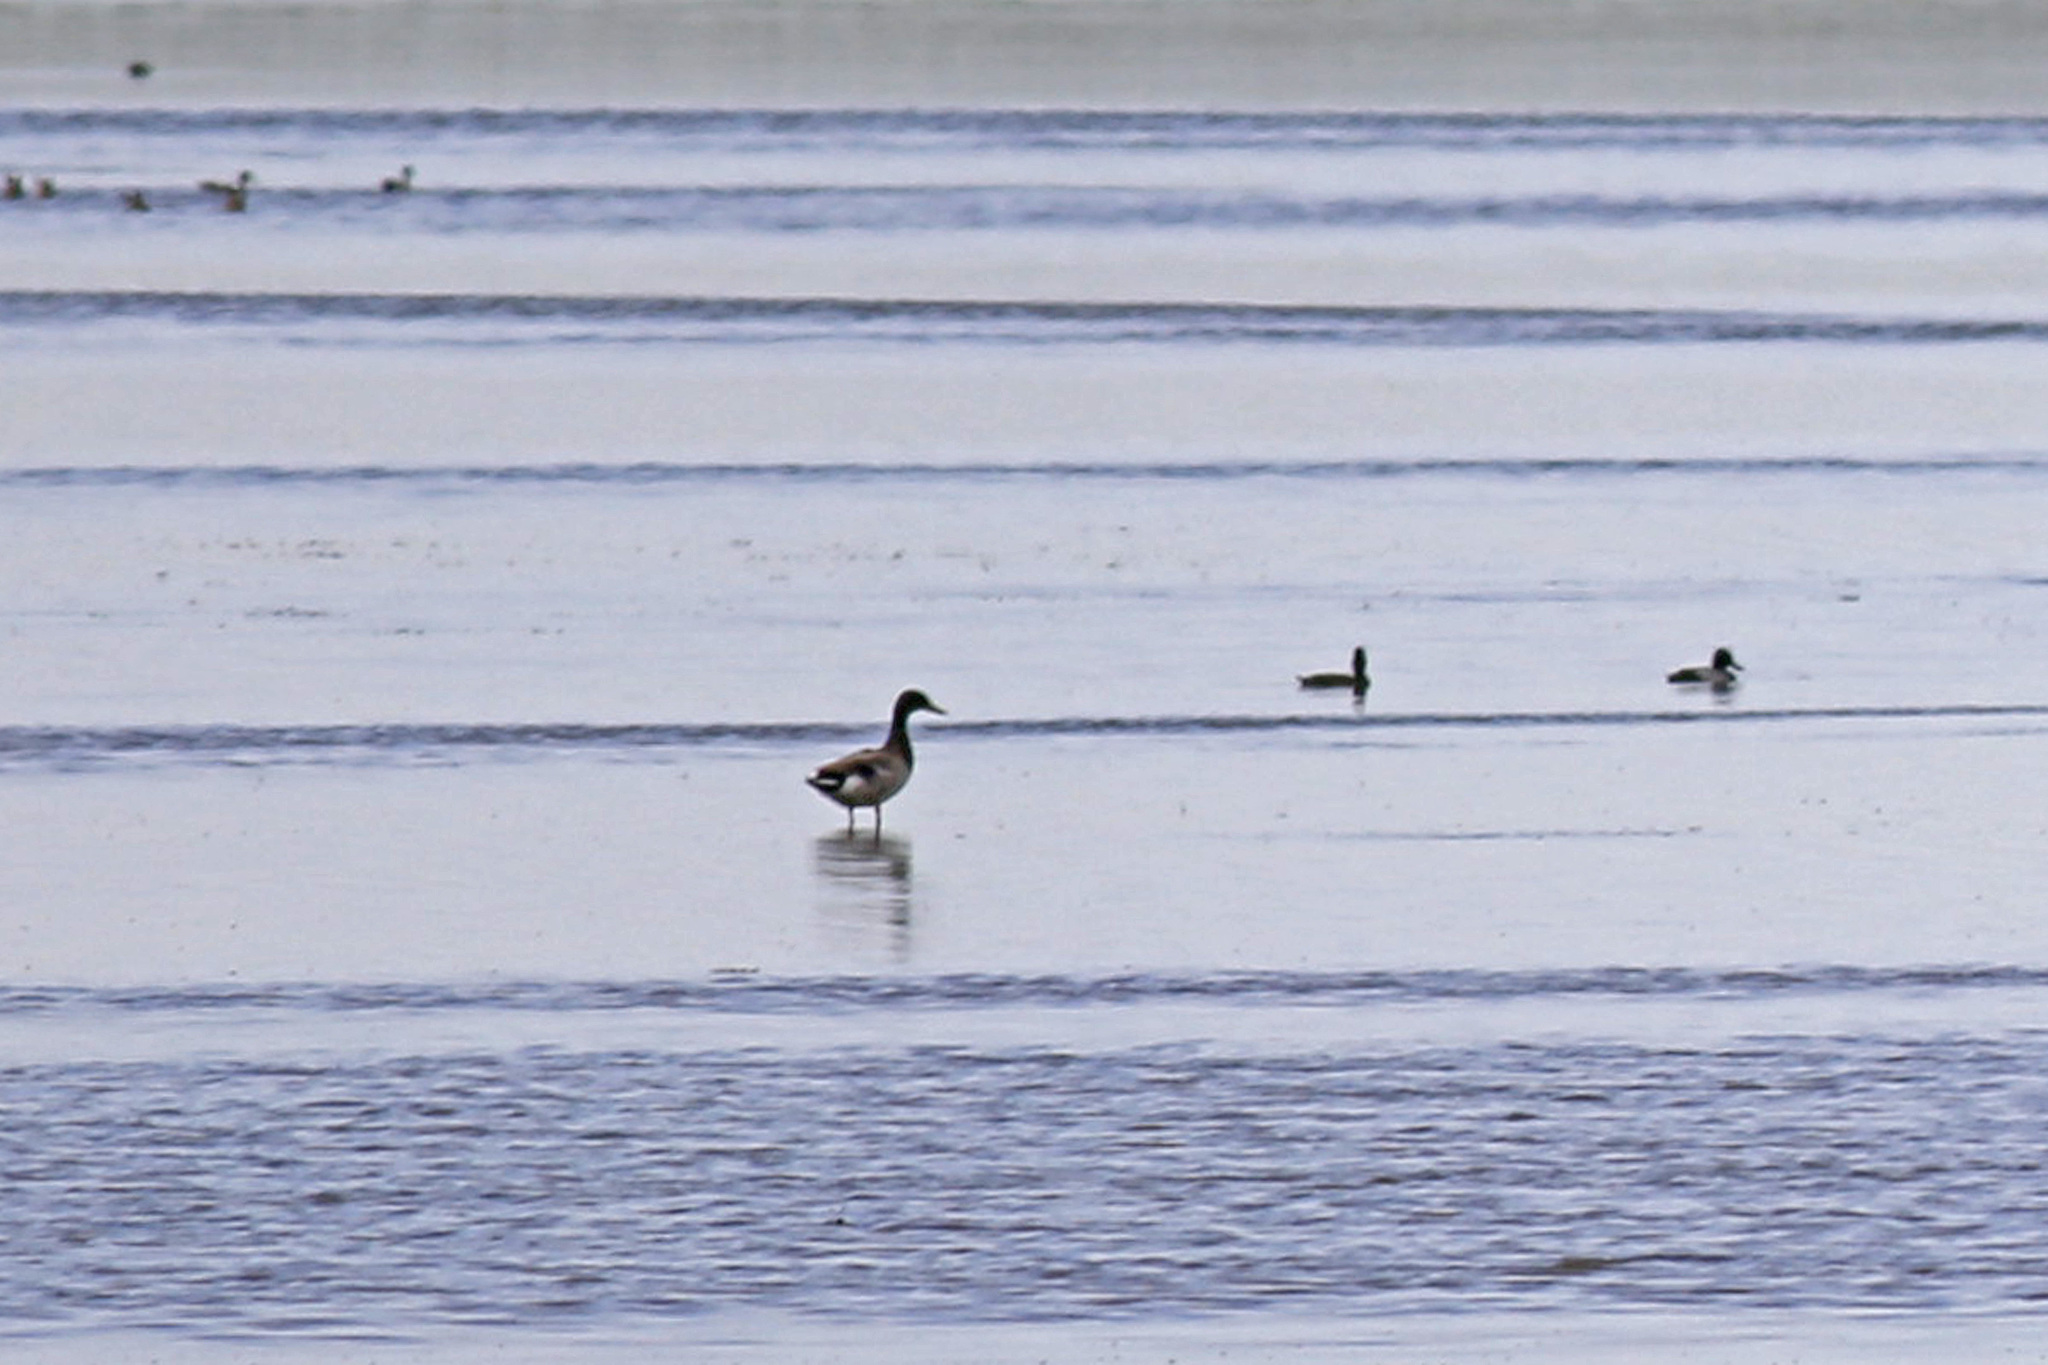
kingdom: Animalia
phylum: Chordata
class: Aves
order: Anseriformes
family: Anatidae
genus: Anas
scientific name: Anas platyrhynchos
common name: Mallard
